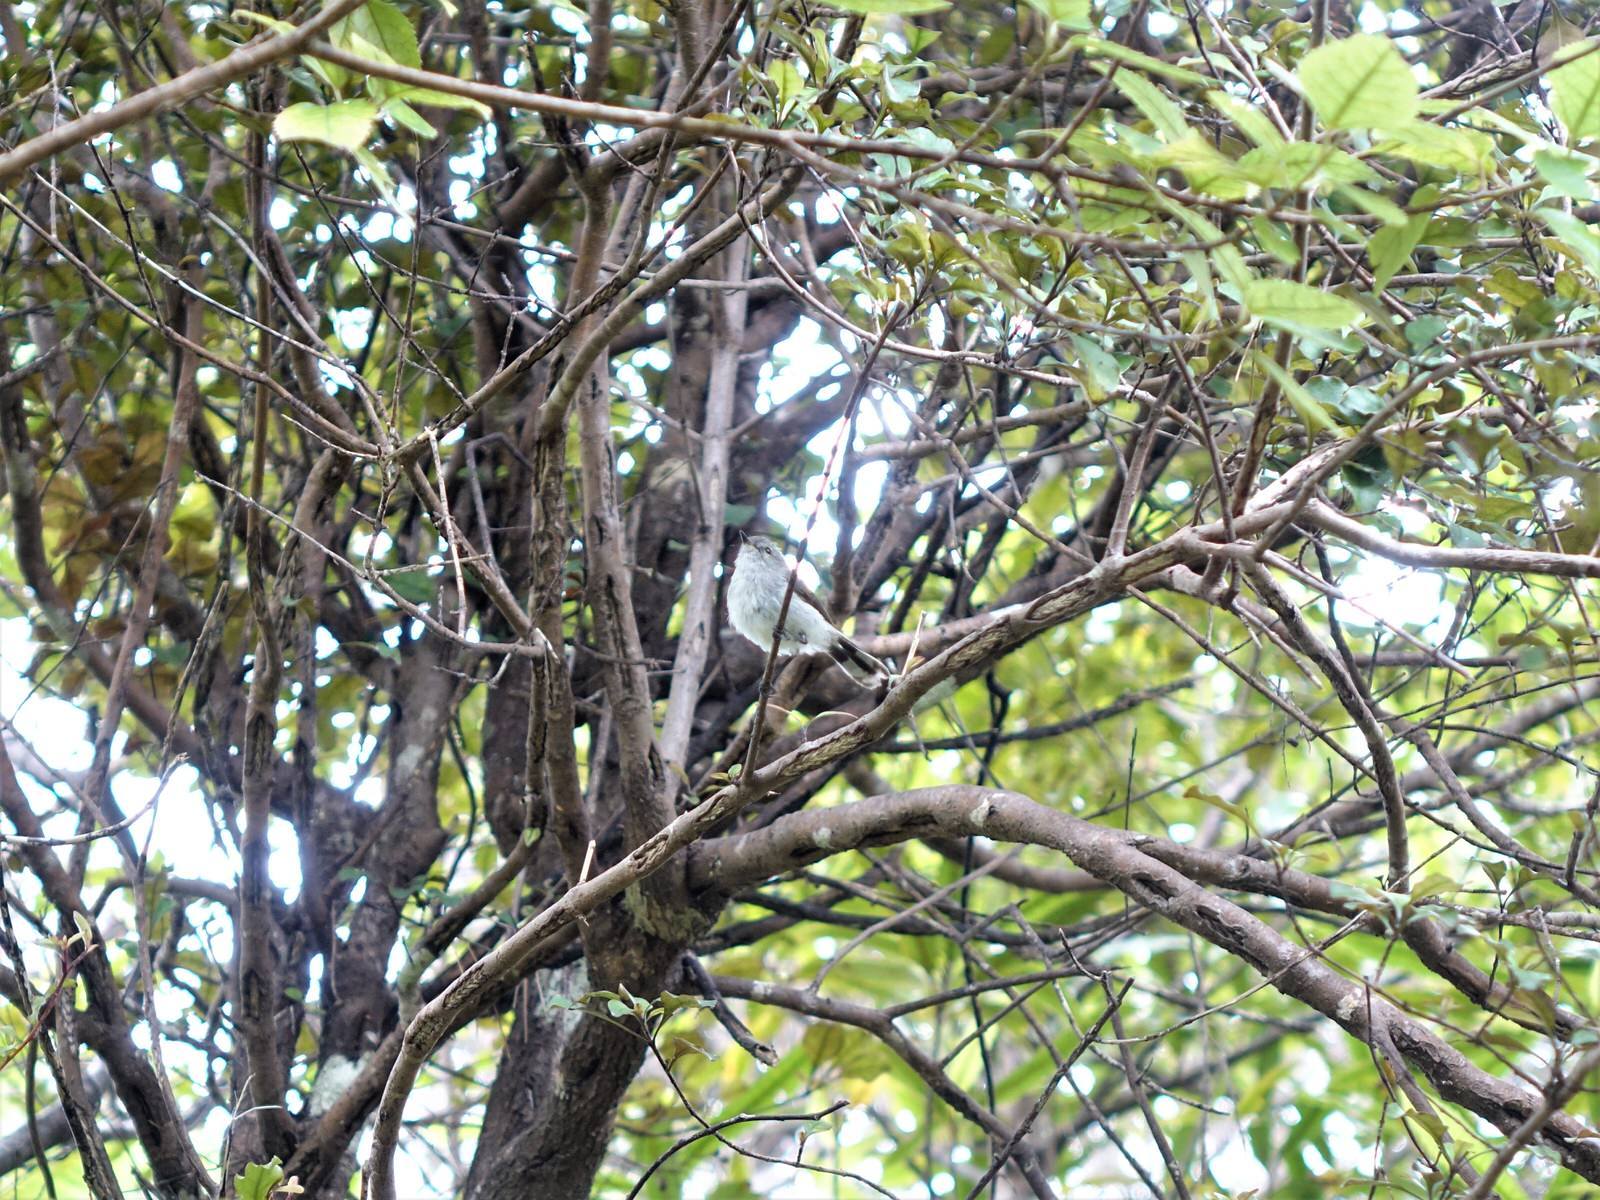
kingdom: Animalia
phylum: Chordata
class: Aves
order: Passeriformes
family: Acanthizidae
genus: Gerygone
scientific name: Gerygone igata
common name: Grey gerygone
